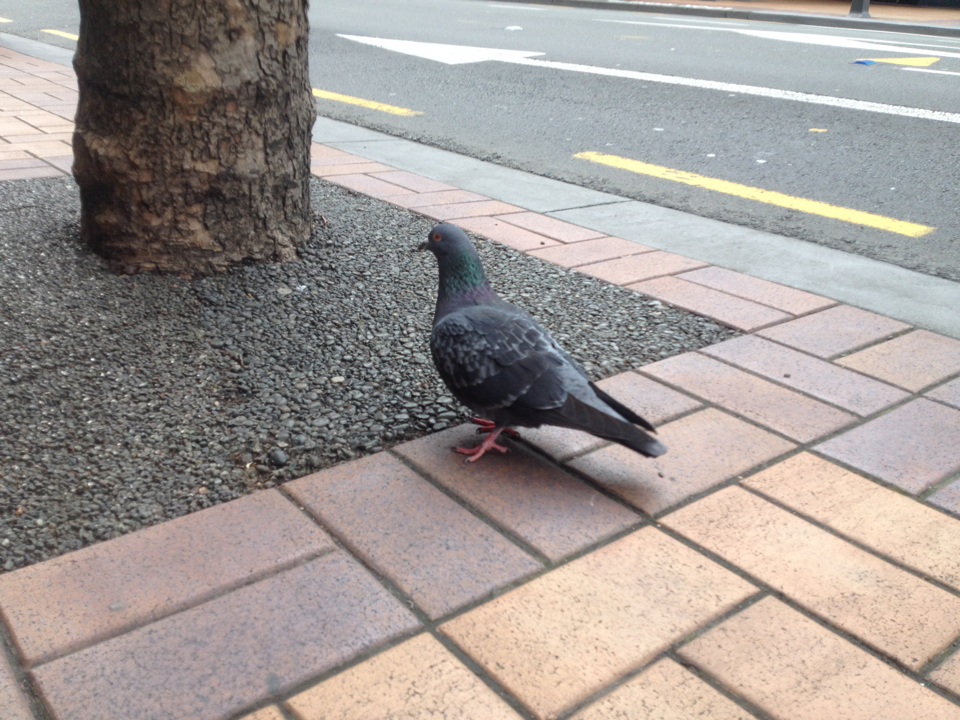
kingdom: Animalia
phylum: Chordata
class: Aves
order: Columbiformes
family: Columbidae
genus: Columba
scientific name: Columba livia
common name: Rock pigeon
